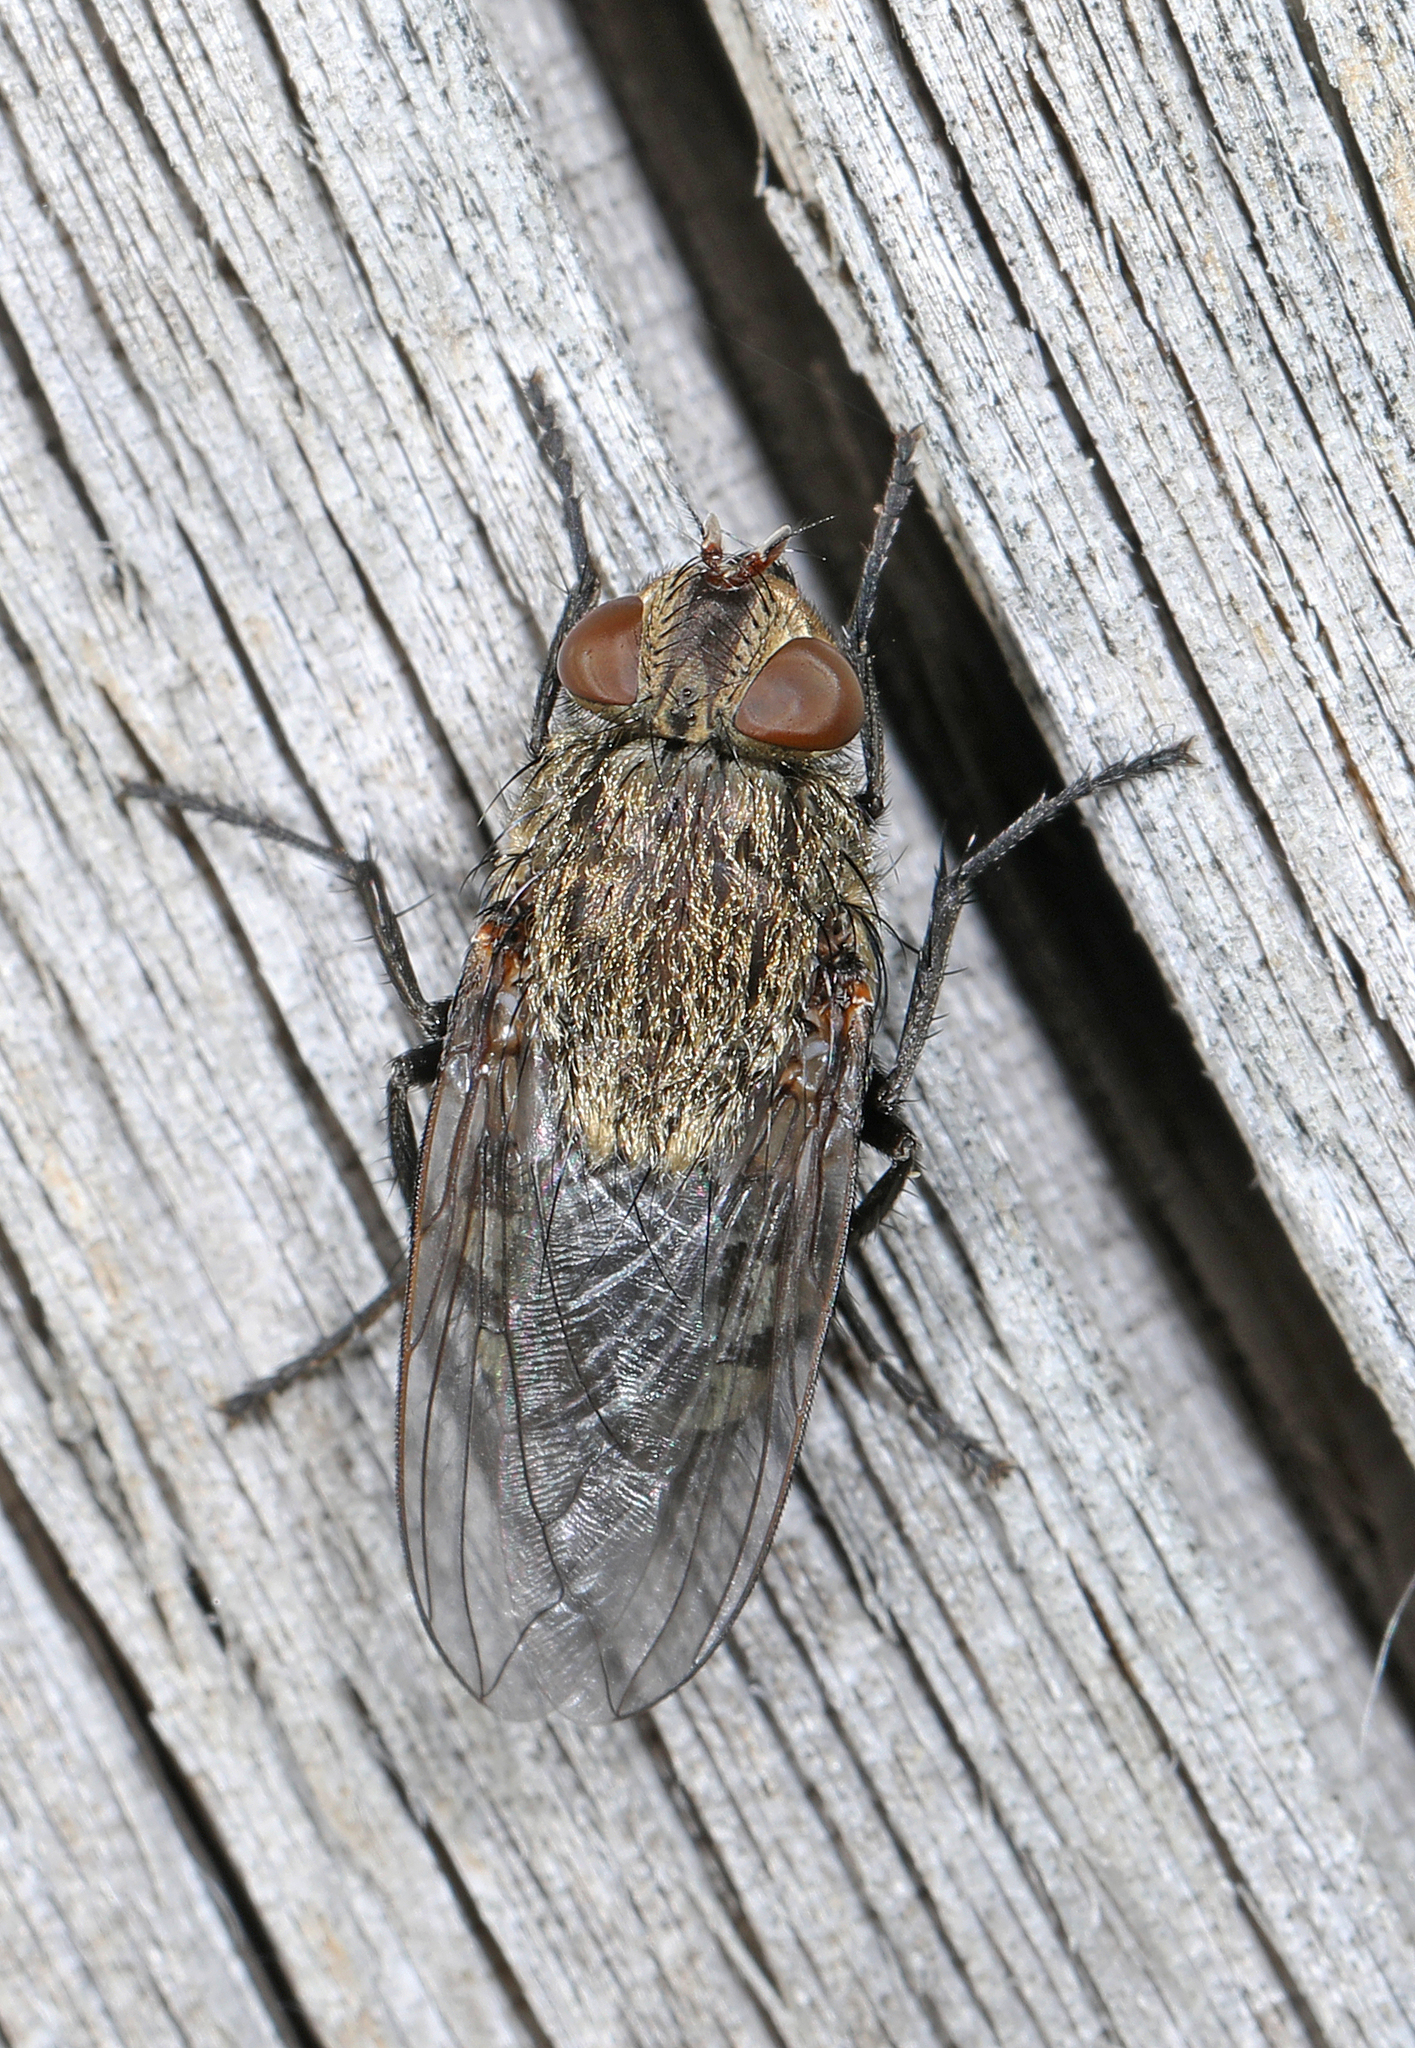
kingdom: Animalia
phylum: Arthropoda
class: Insecta
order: Diptera
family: Polleniidae
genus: Pollenia
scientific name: Pollenia
